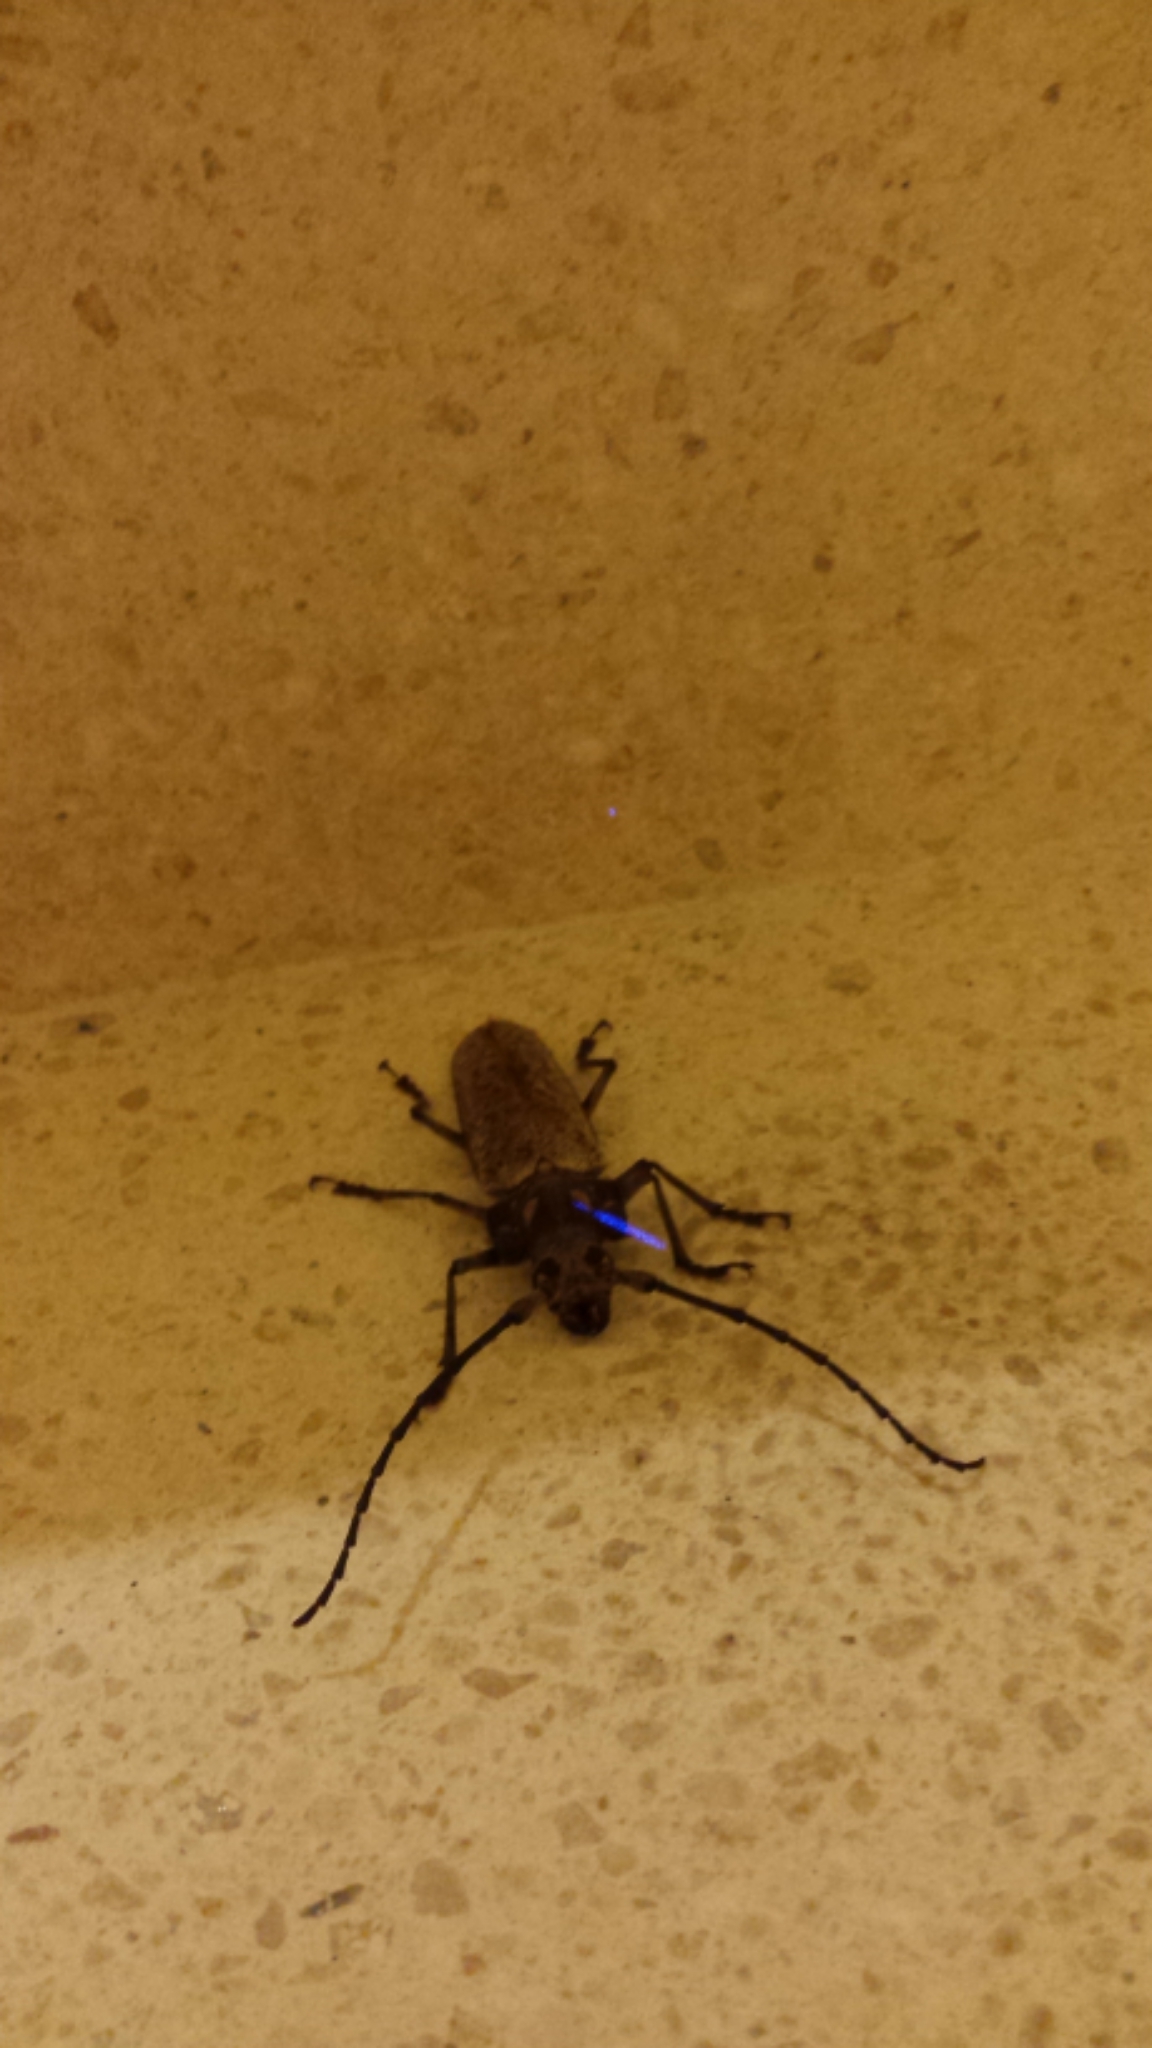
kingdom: Animalia
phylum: Arthropoda
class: Insecta
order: Coleoptera
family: Cerambycidae
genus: Callipogon
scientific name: Callipogon sericeus
